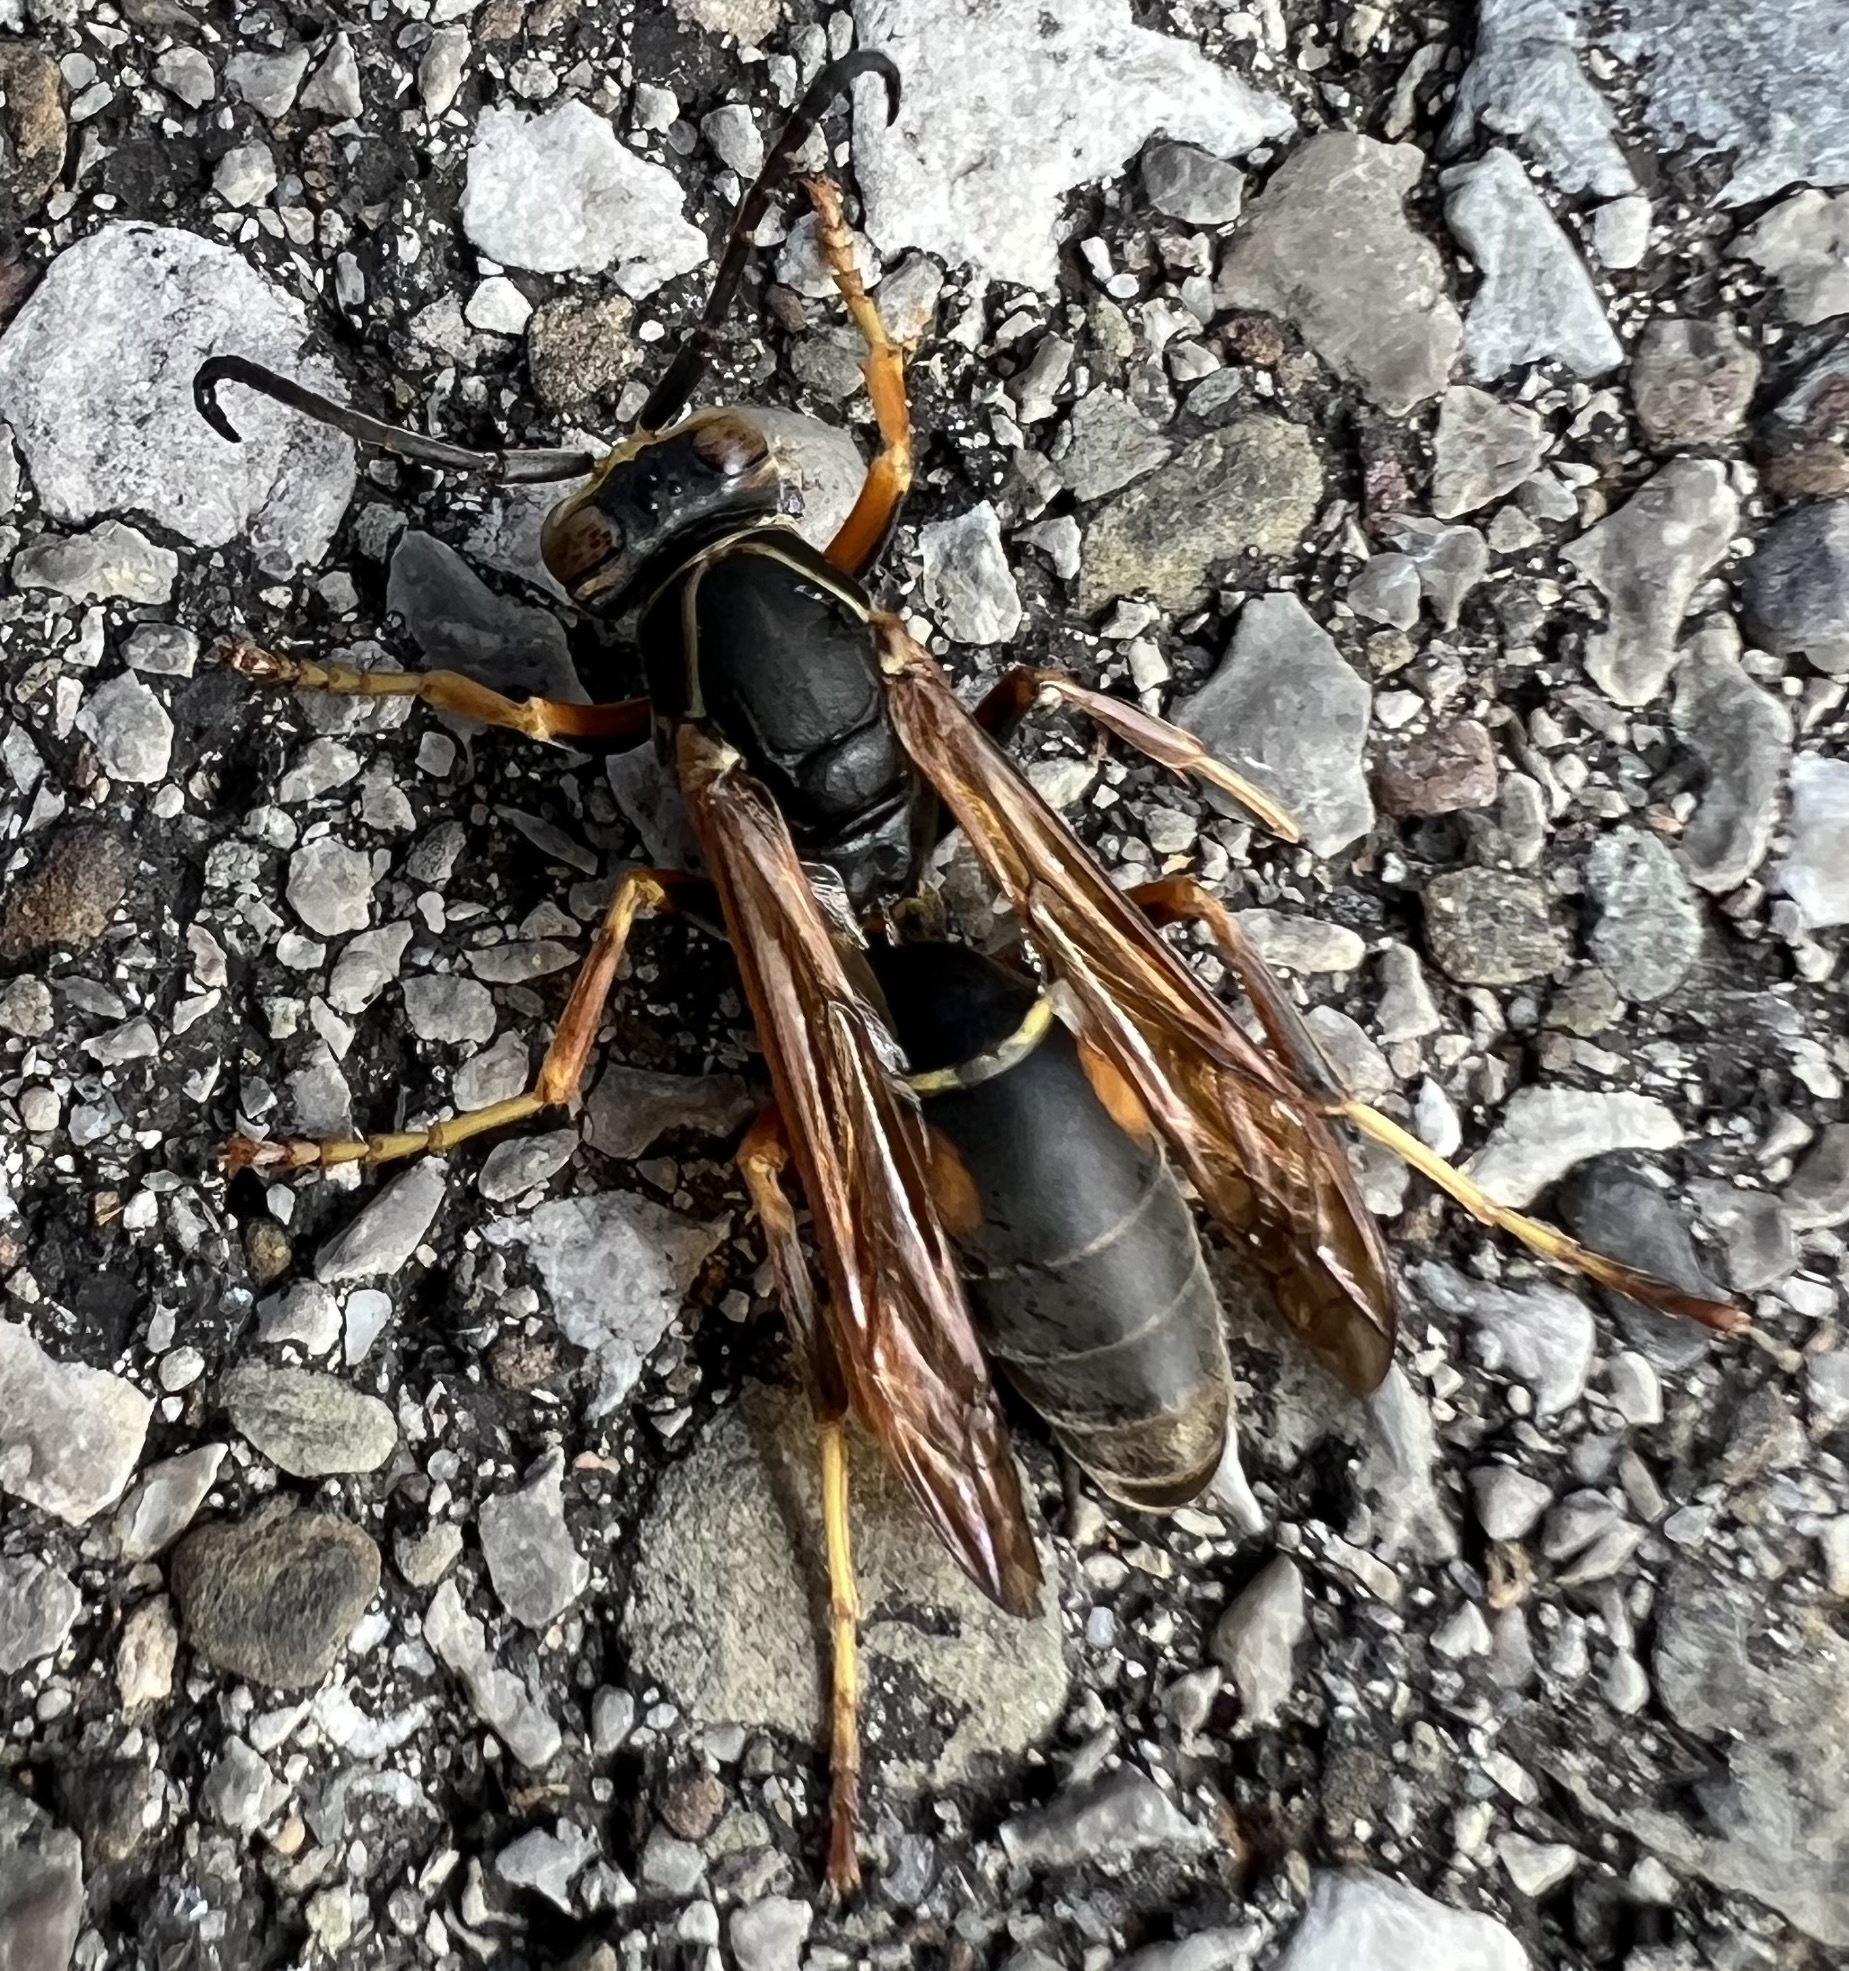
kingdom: Animalia
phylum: Arthropoda
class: Insecta
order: Hymenoptera
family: Eumenidae
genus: Polistes
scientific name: Polistes fuscatus
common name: Dark paper wasp
